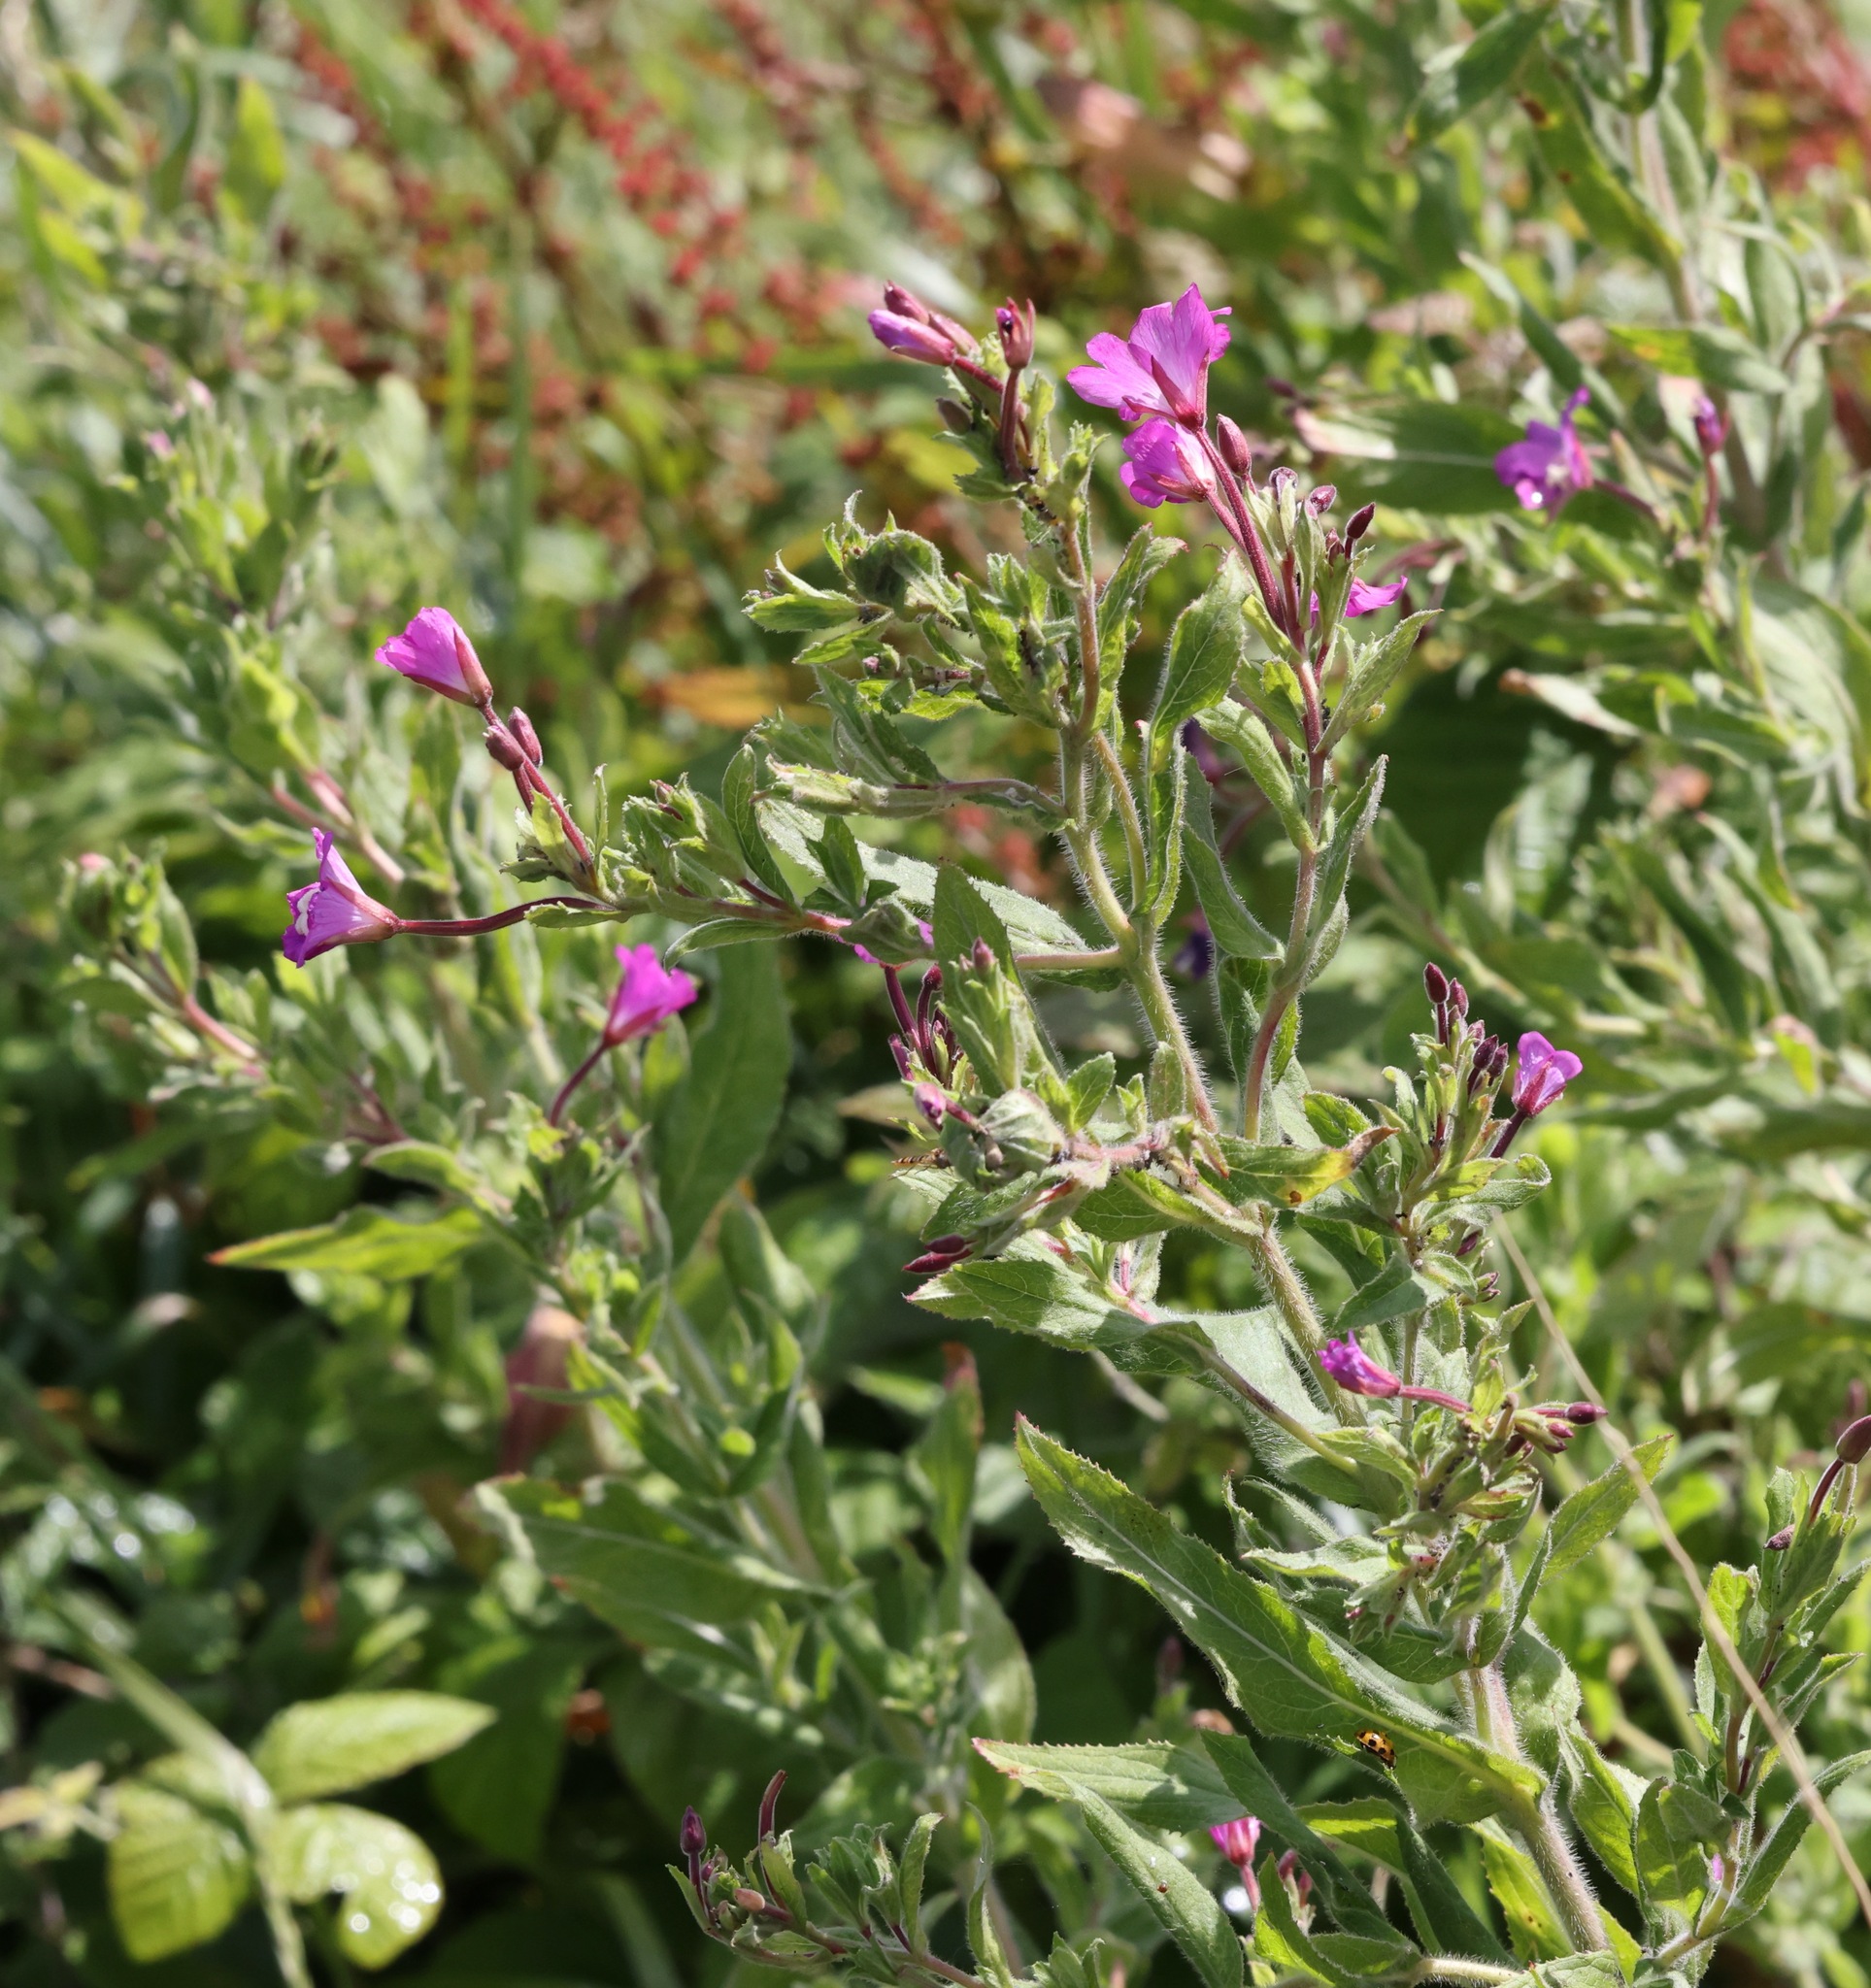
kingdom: Plantae
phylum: Tracheophyta
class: Magnoliopsida
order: Myrtales
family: Onagraceae
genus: Epilobium
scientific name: Epilobium hirsutum
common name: Great willowherb
